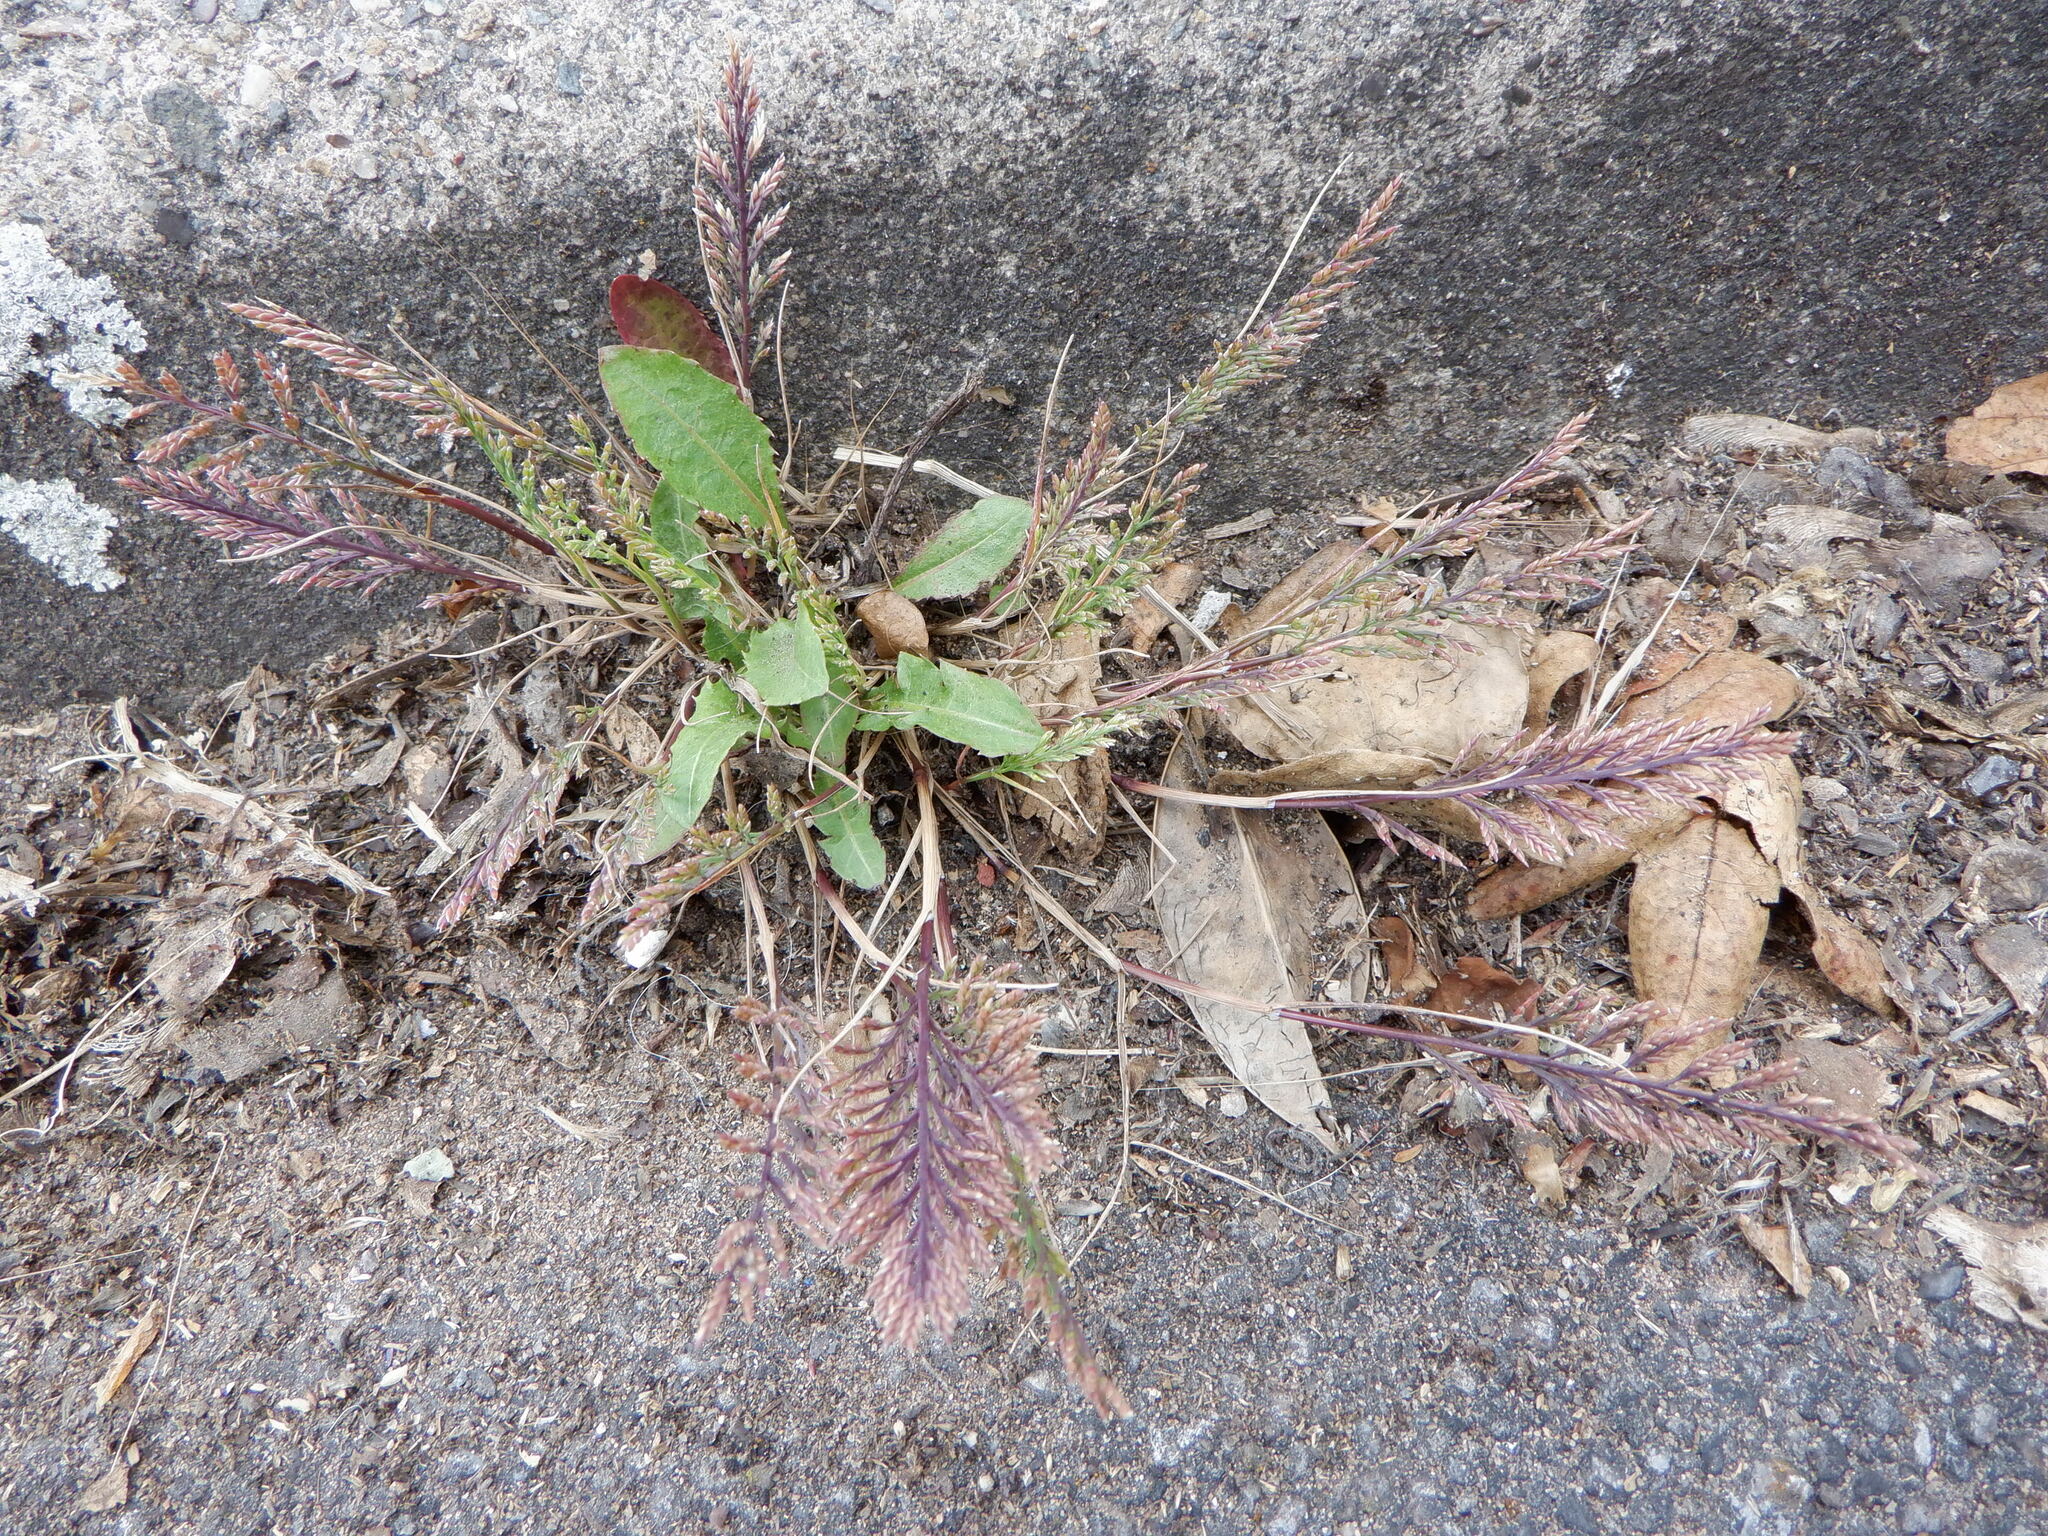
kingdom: Plantae
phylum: Tracheophyta
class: Liliopsida
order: Poales
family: Poaceae
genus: Catapodium
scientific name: Catapodium rigidum
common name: Fern-grass
